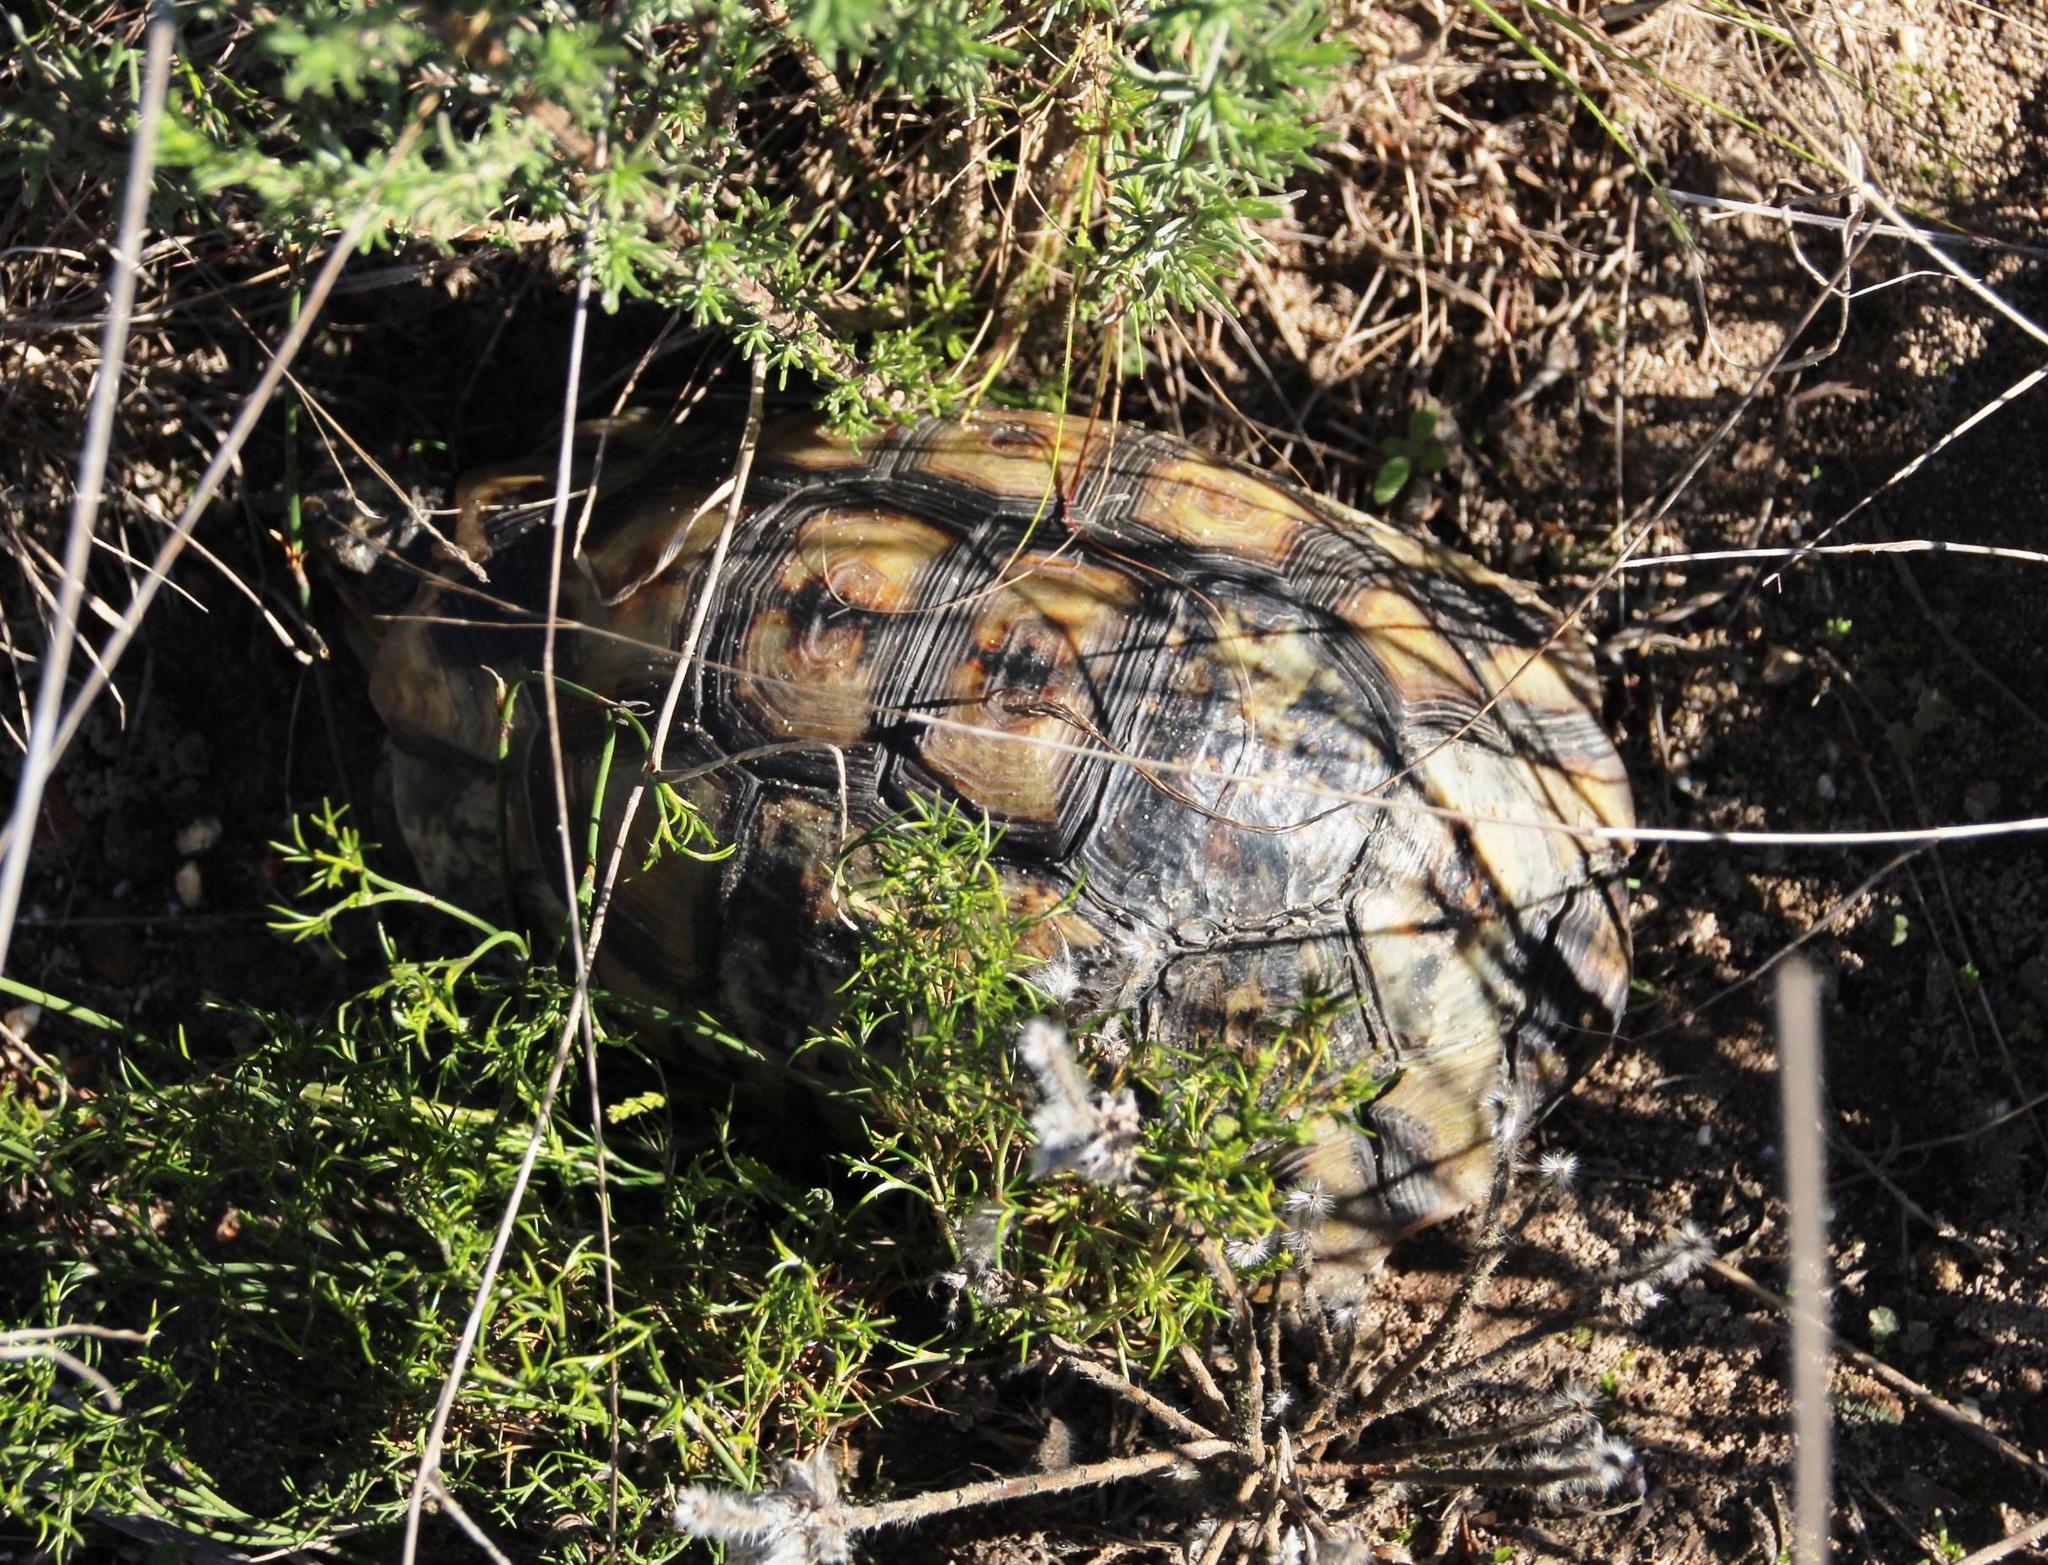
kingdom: Animalia
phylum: Chordata
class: Testudines
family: Testudinidae
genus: Chersina
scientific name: Chersina angulata
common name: South african bowsprit tortoise
